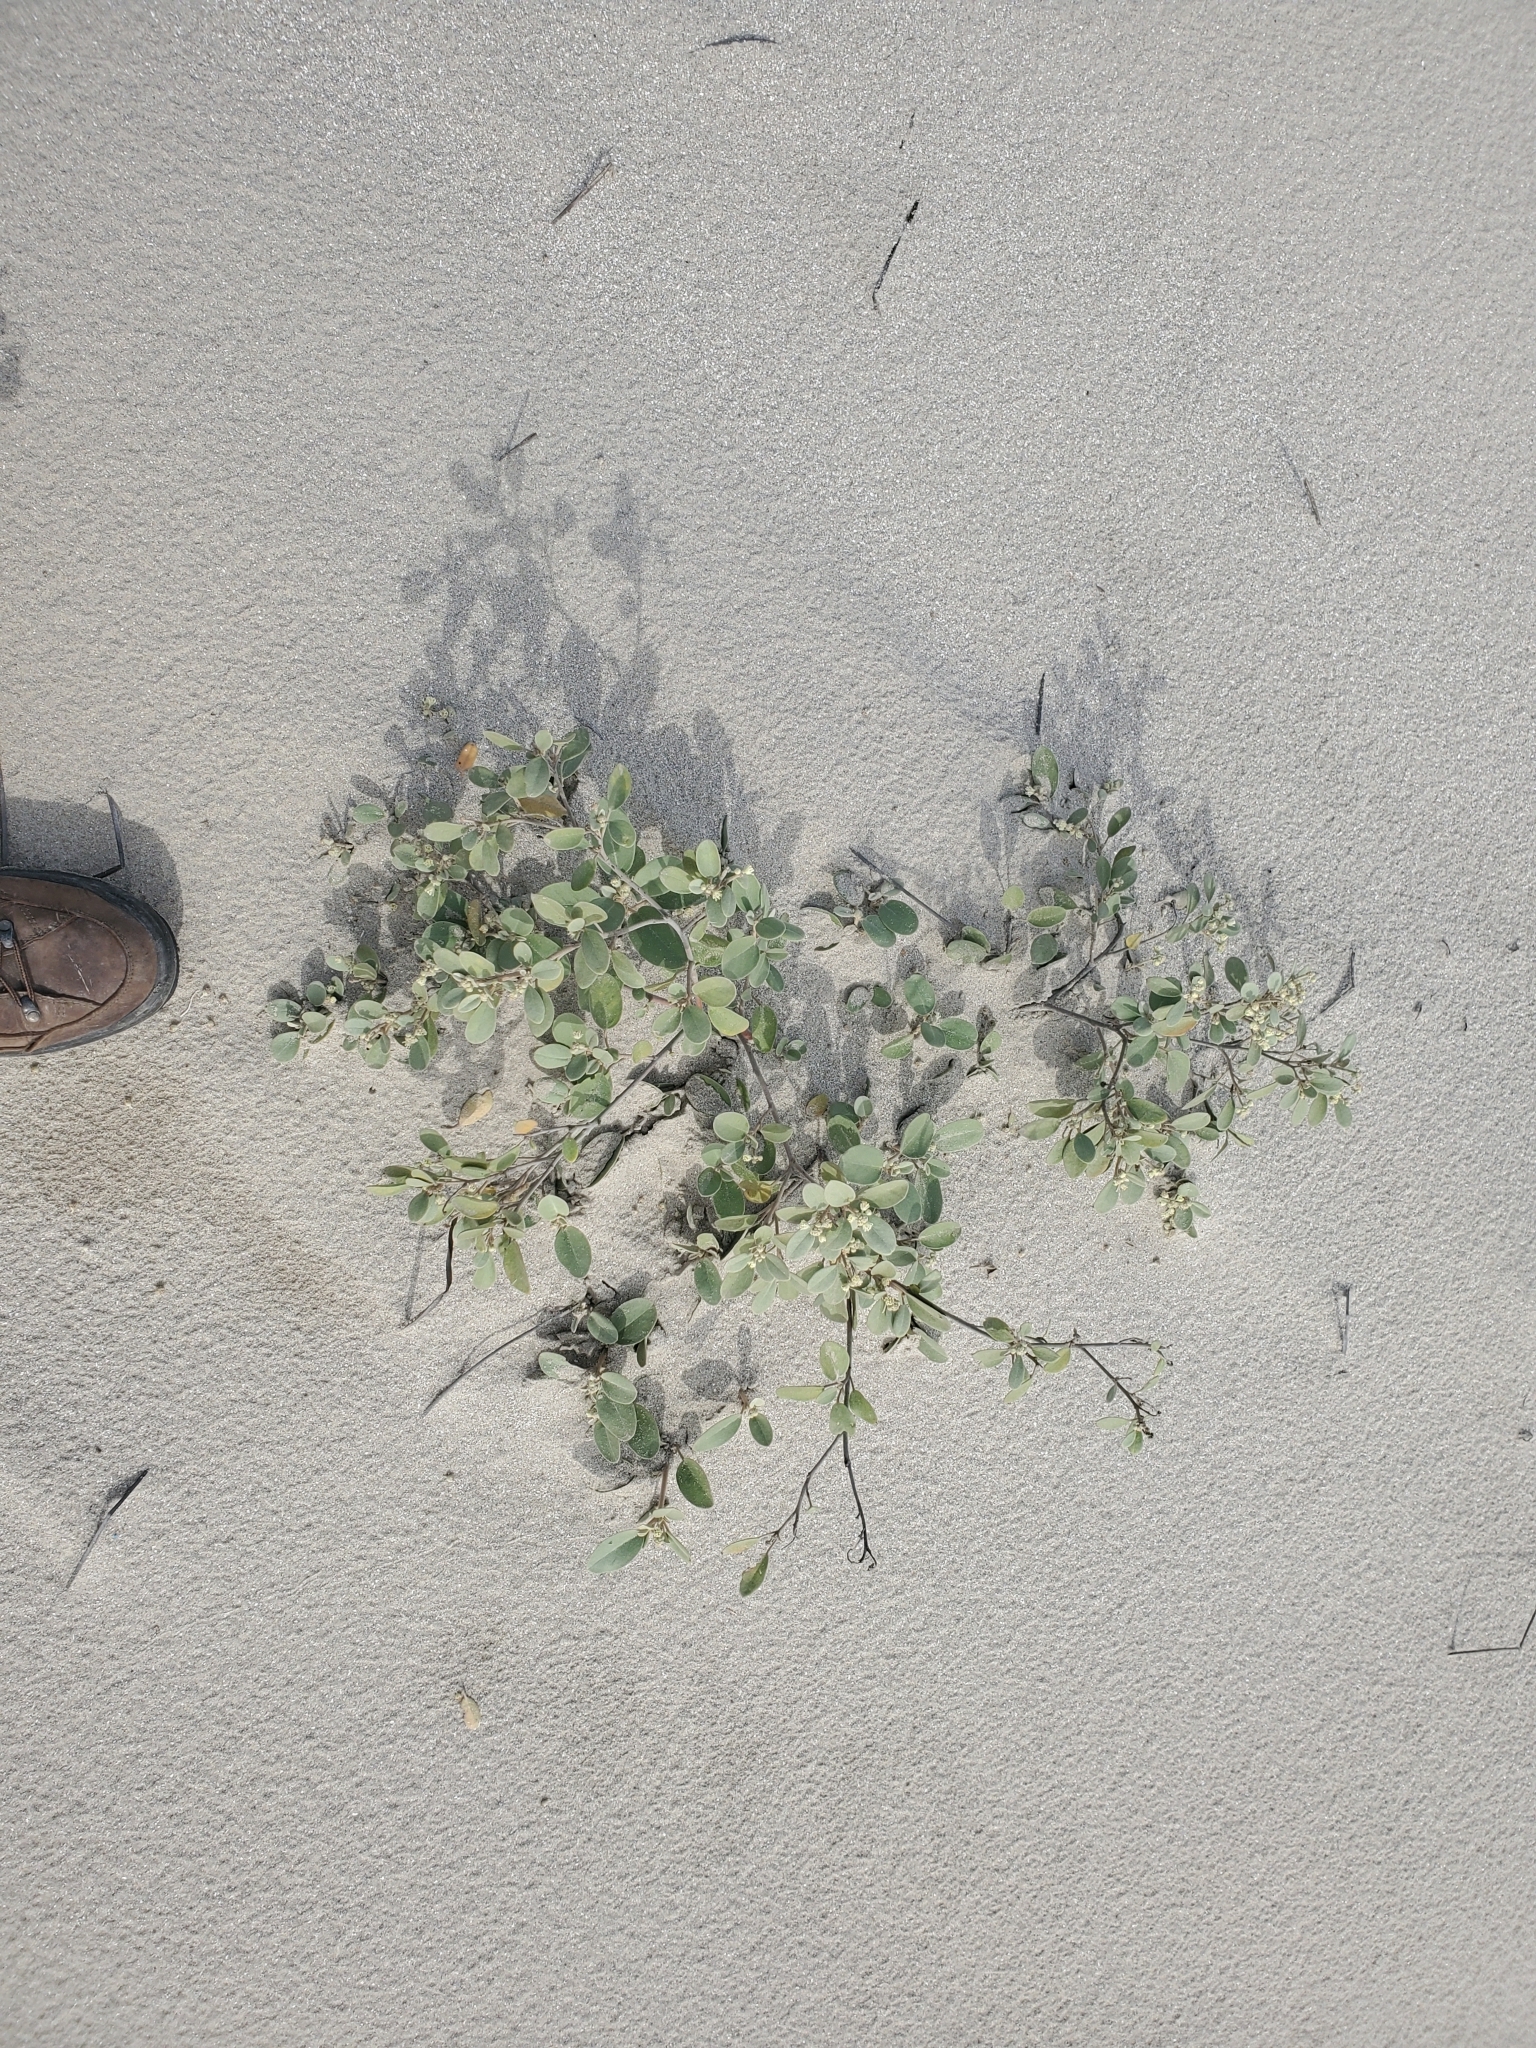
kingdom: Plantae
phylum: Tracheophyta
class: Magnoliopsida
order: Malpighiales
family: Euphorbiaceae
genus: Croton
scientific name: Croton punctatus
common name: Beach-tea
